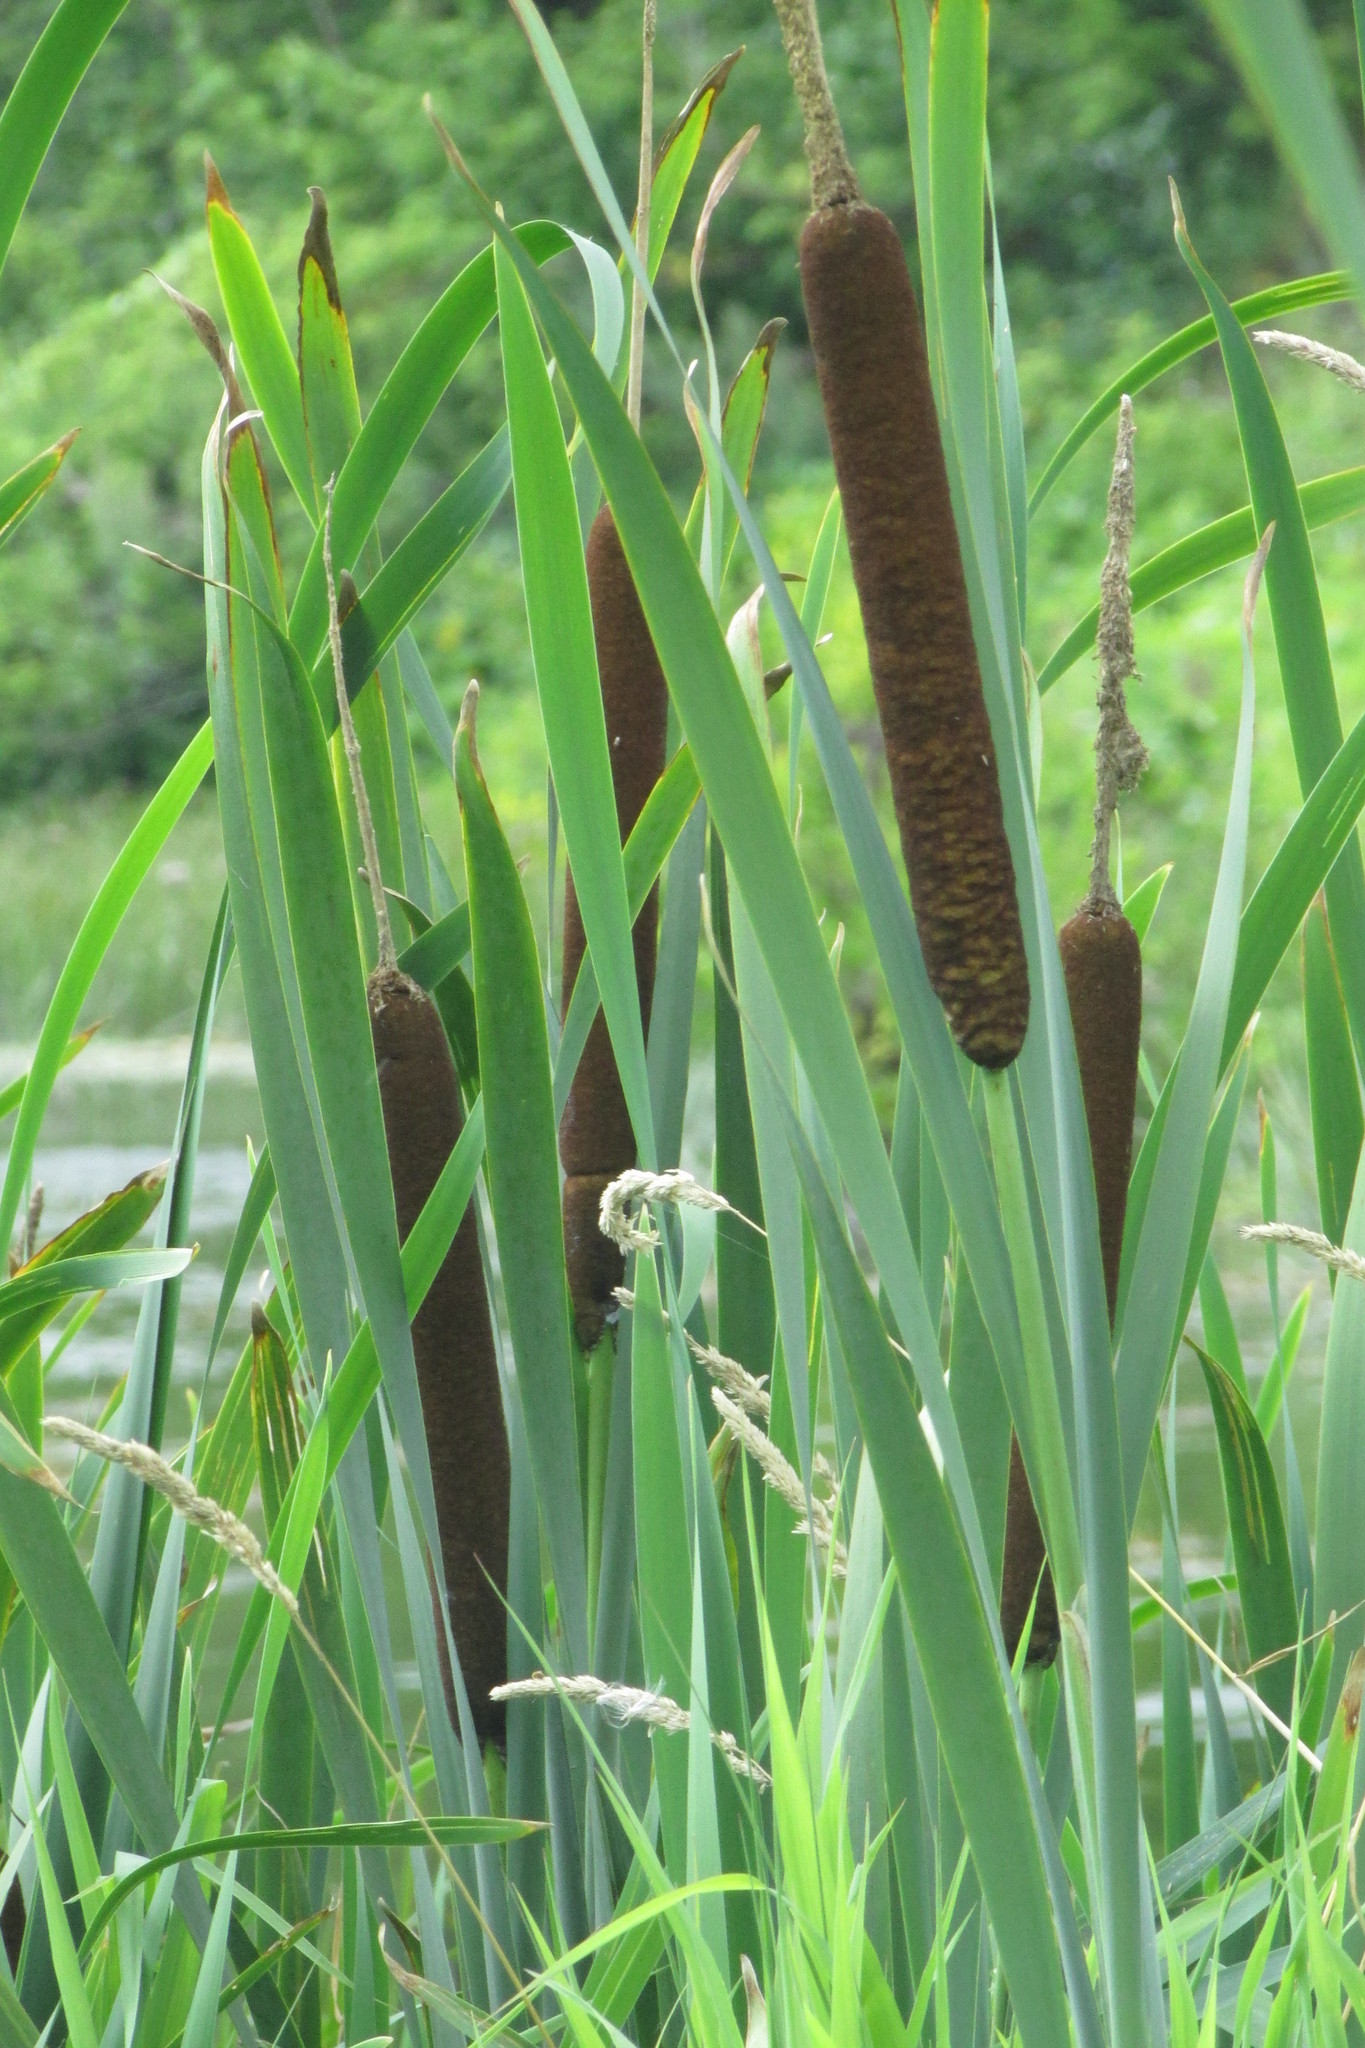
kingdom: Plantae
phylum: Tracheophyta
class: Liliopsida
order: Poales
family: Typhaceae
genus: Typha
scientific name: Typha latifolia
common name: Broadleaf cattail
